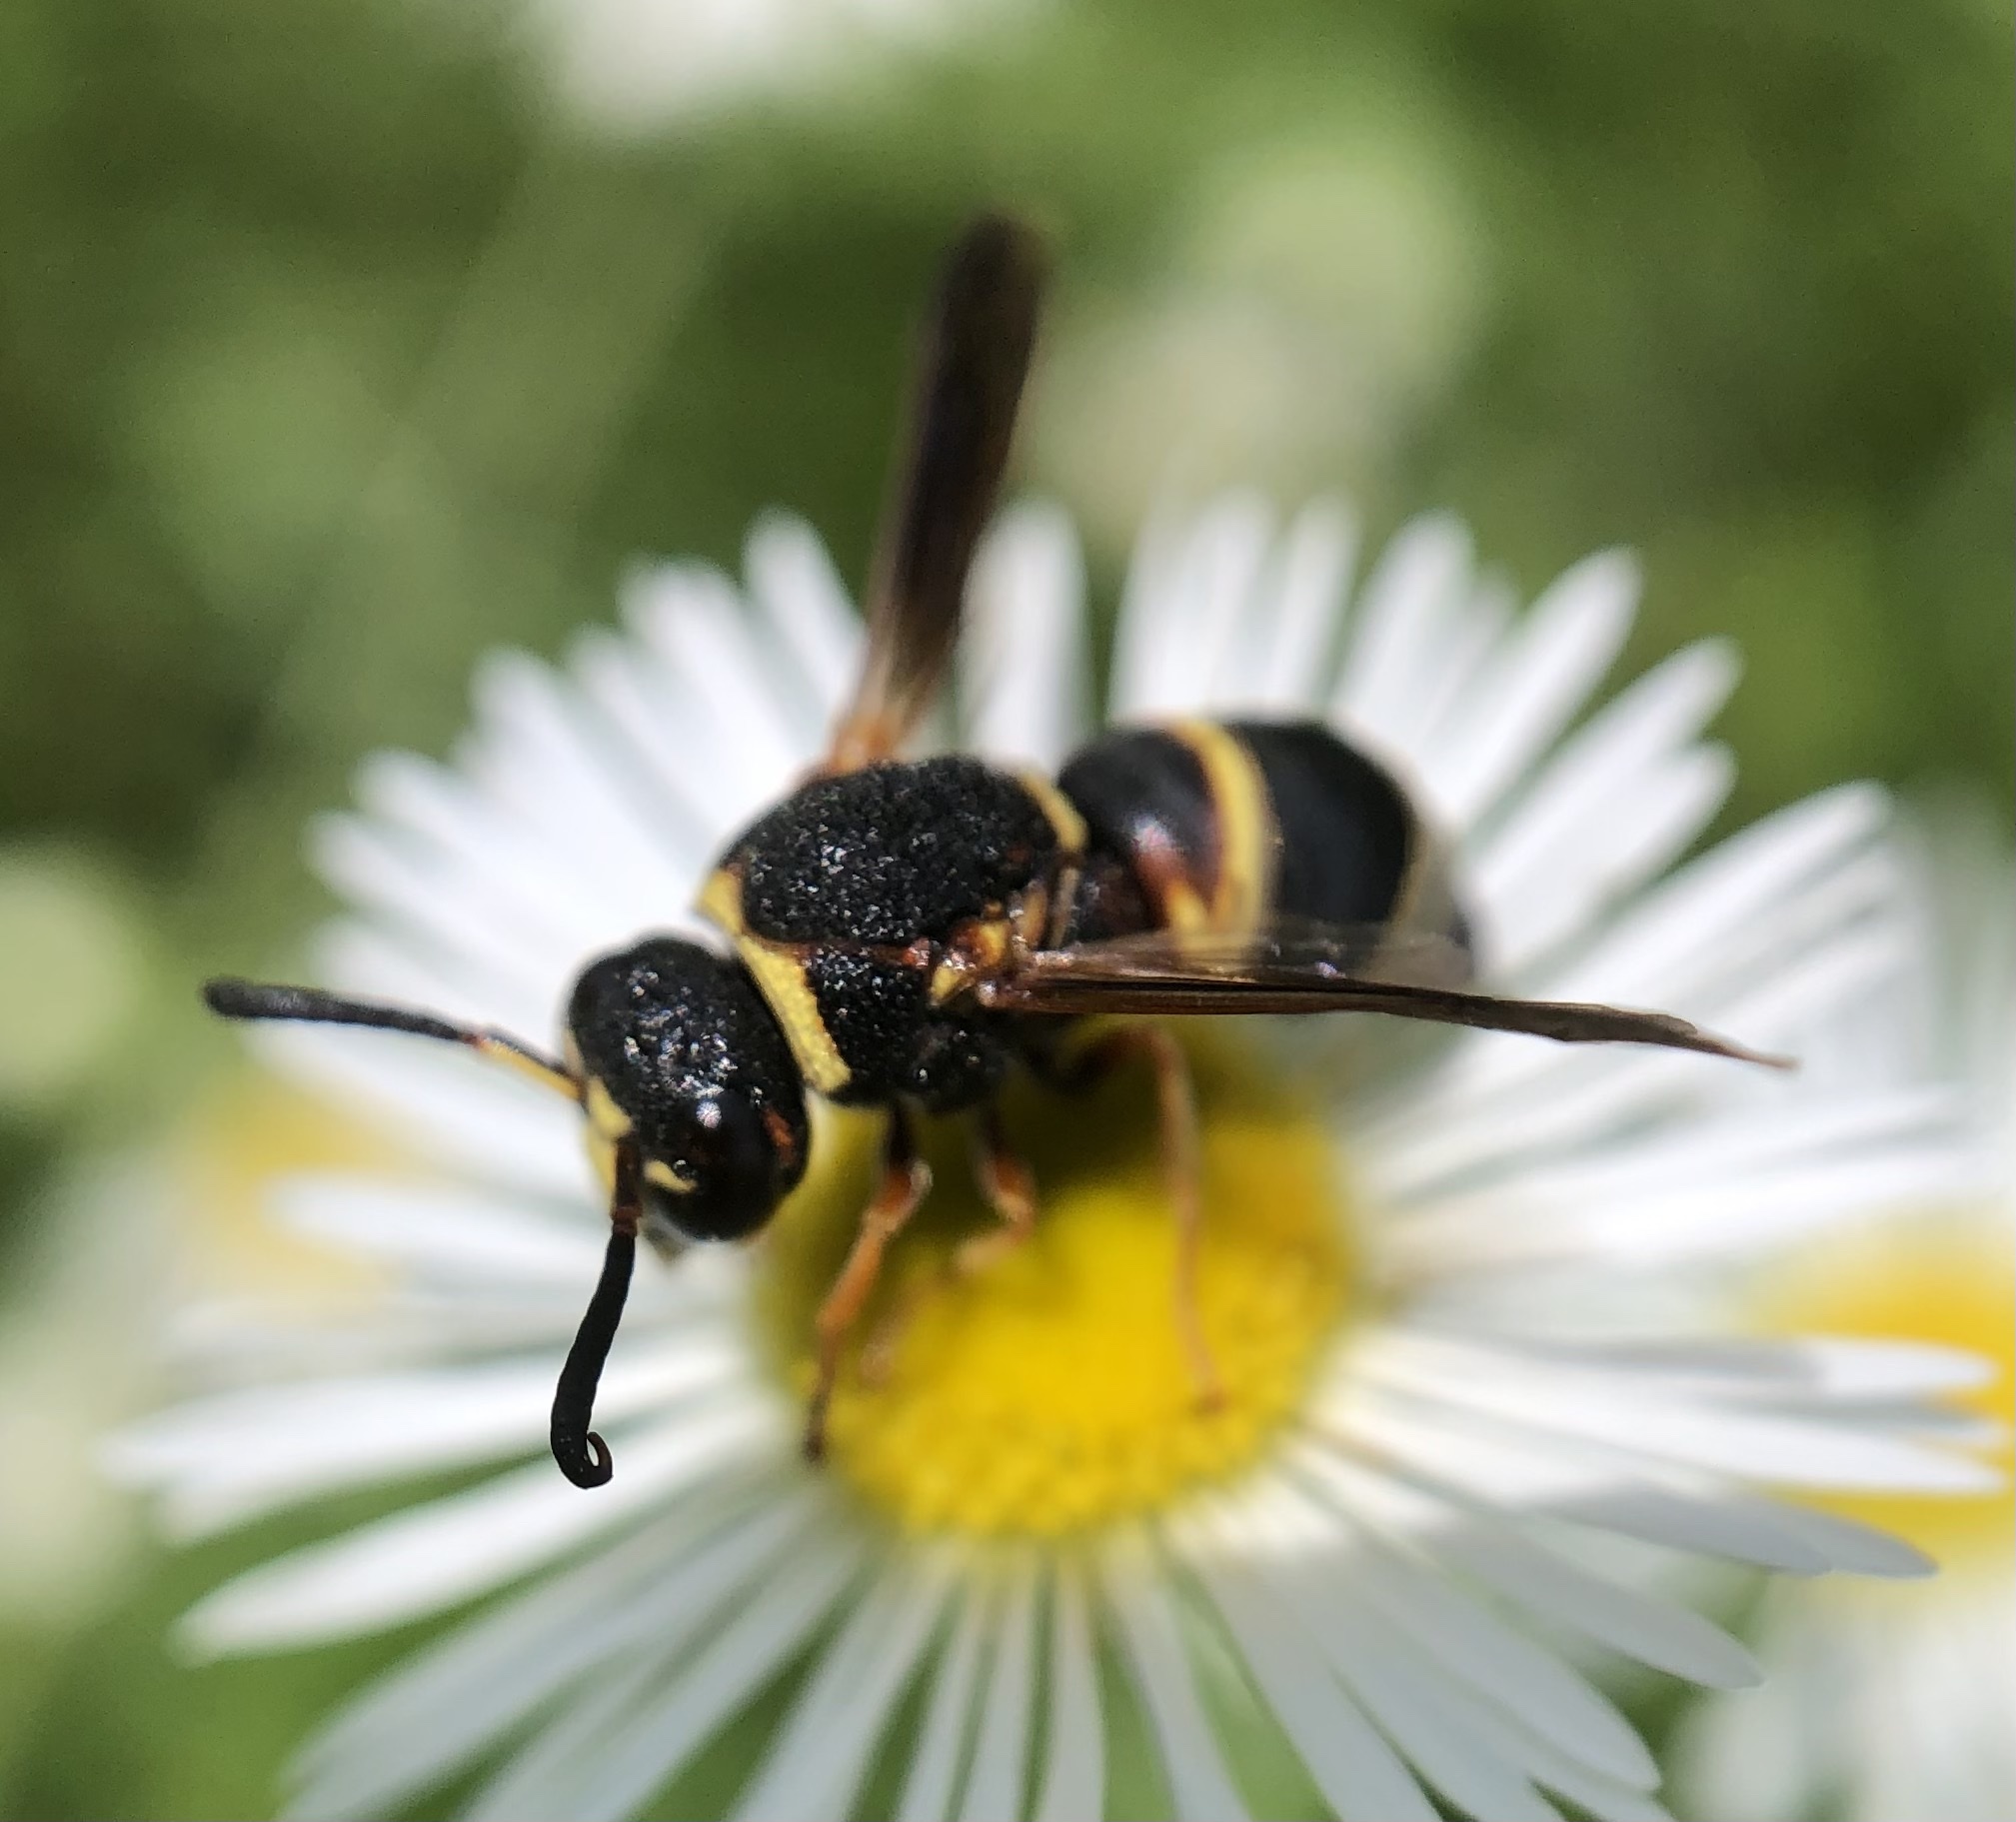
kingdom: Animalia
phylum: Arthropoda
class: Insecta
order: Hymenoptera
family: Eumenidae
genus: Euodynerus
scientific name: Euodynerus hidalgo
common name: Wasp
